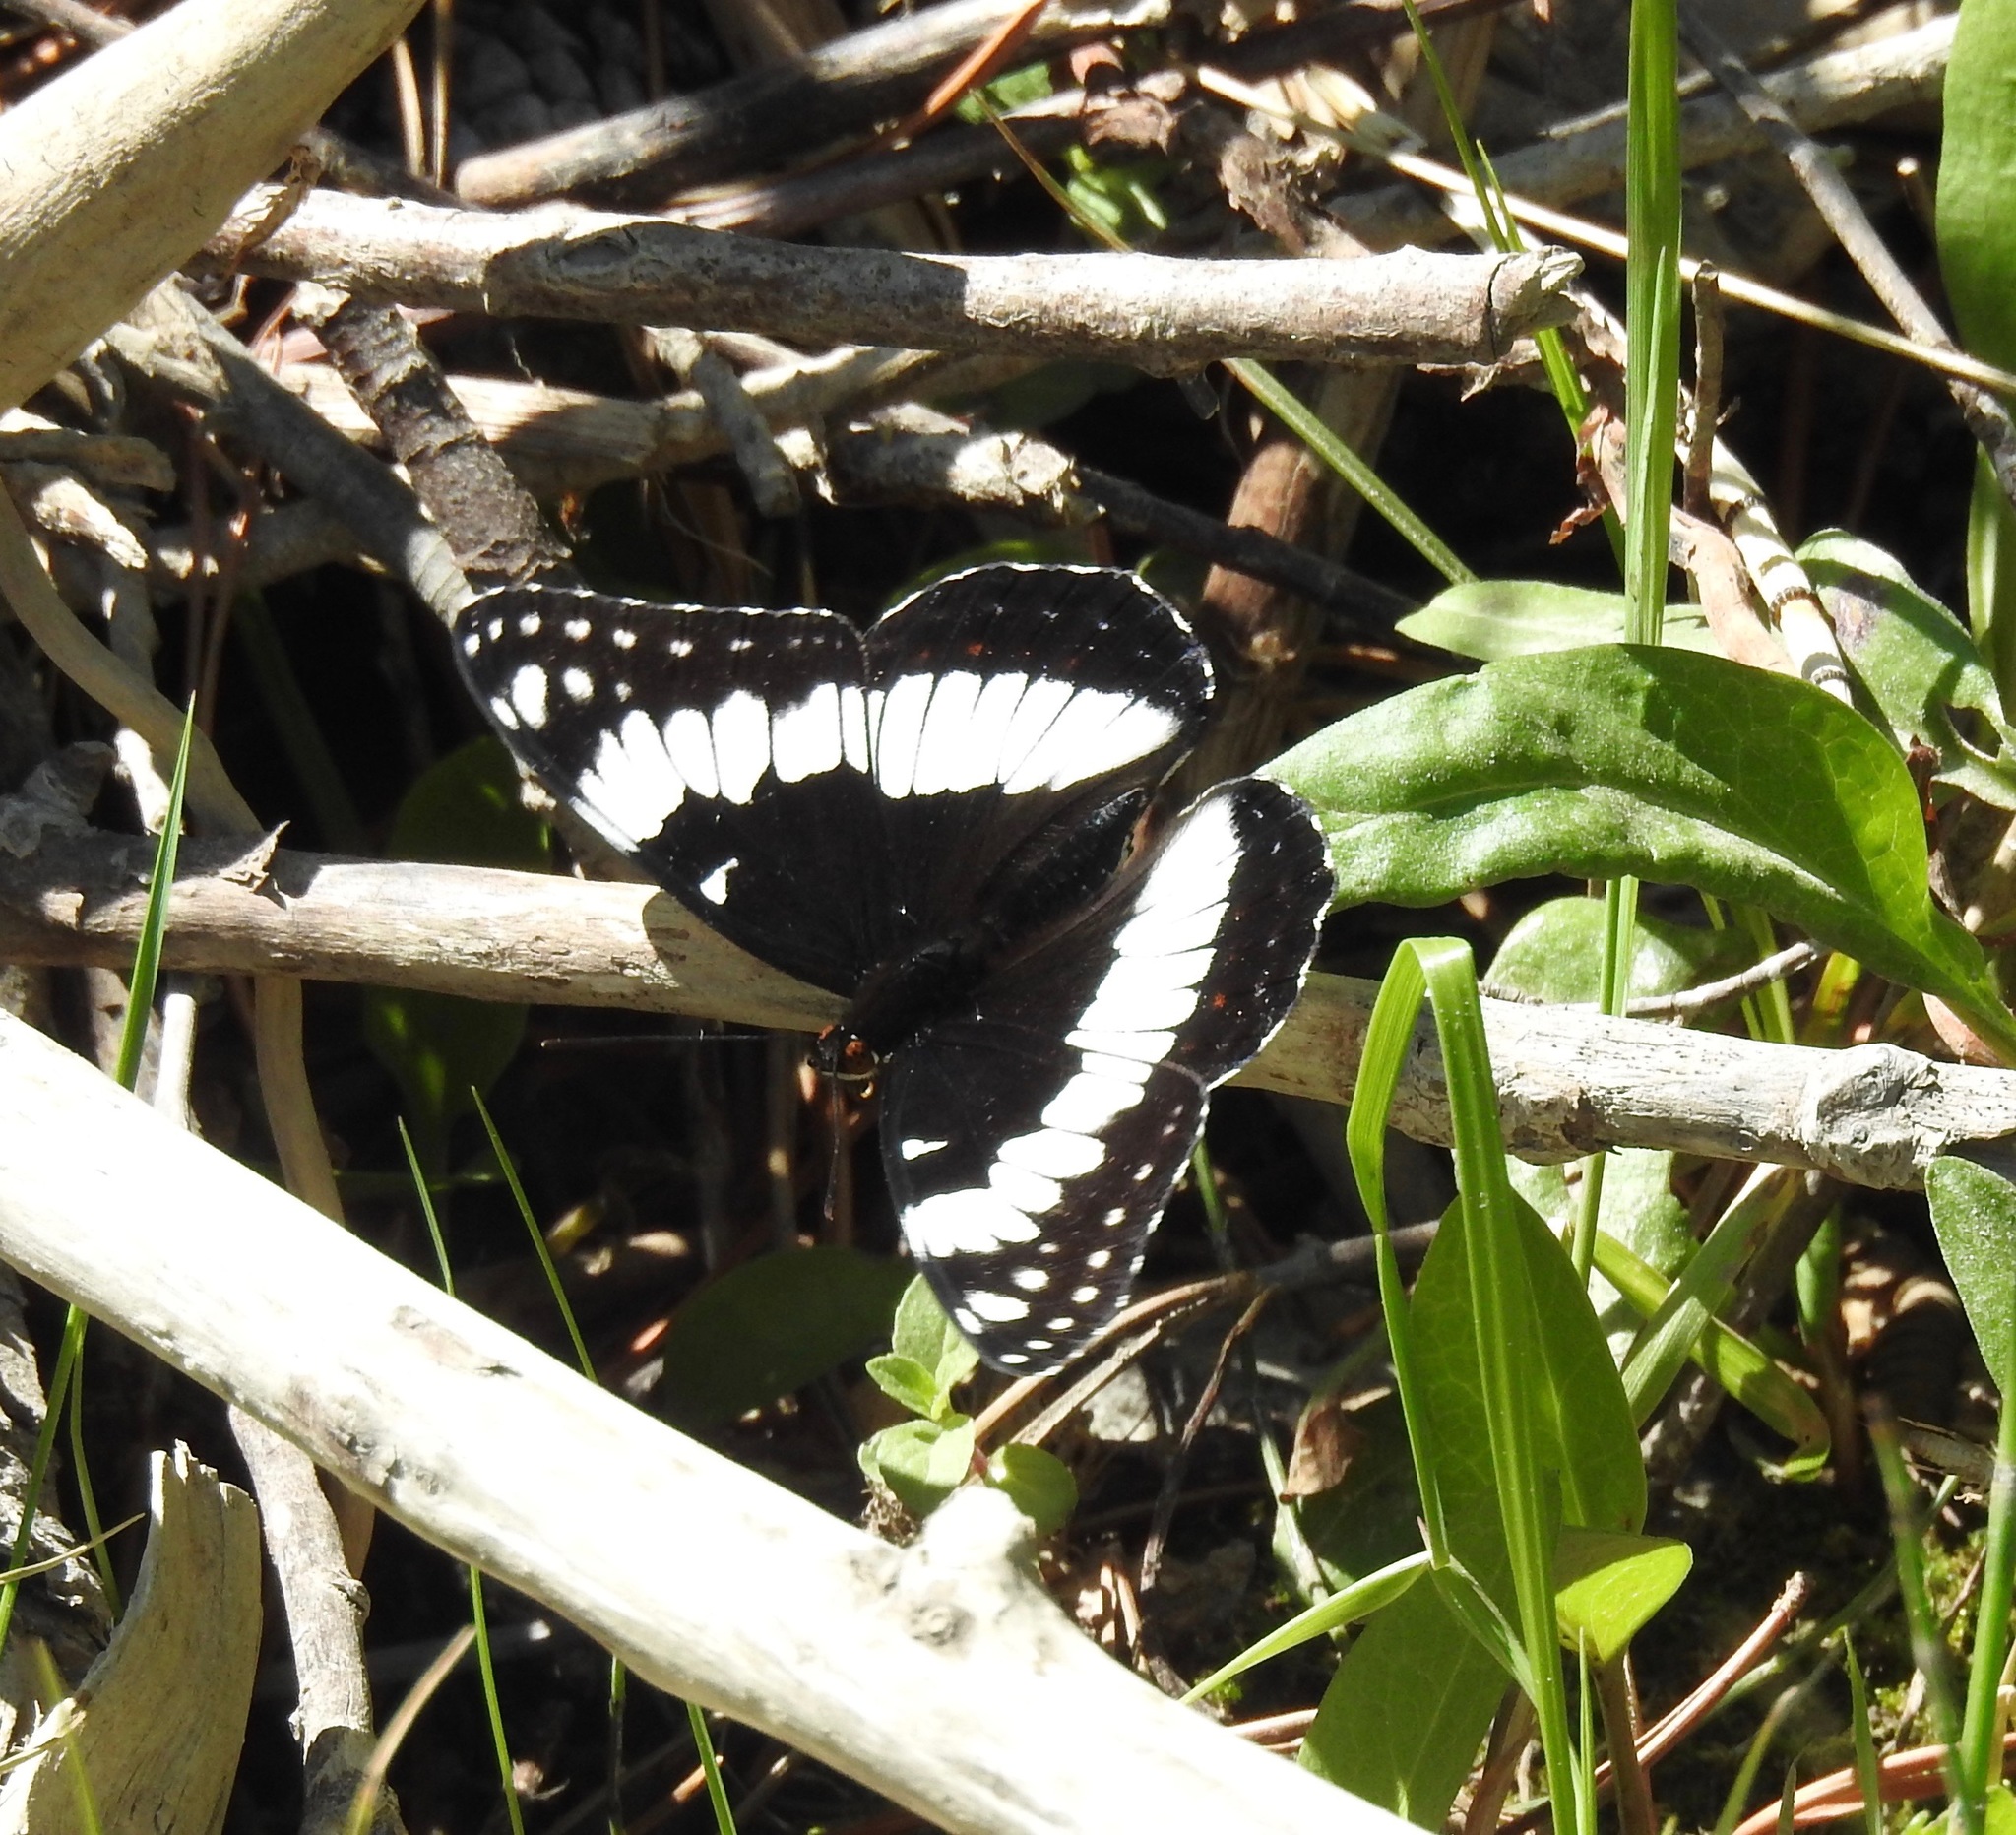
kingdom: Animalia
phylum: Arthropoda
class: Insecta
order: Lepidoptera
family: Nymphalidae
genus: Limenitis
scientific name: Limenitis weidemeyerii
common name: Weidemeyer's admiral
